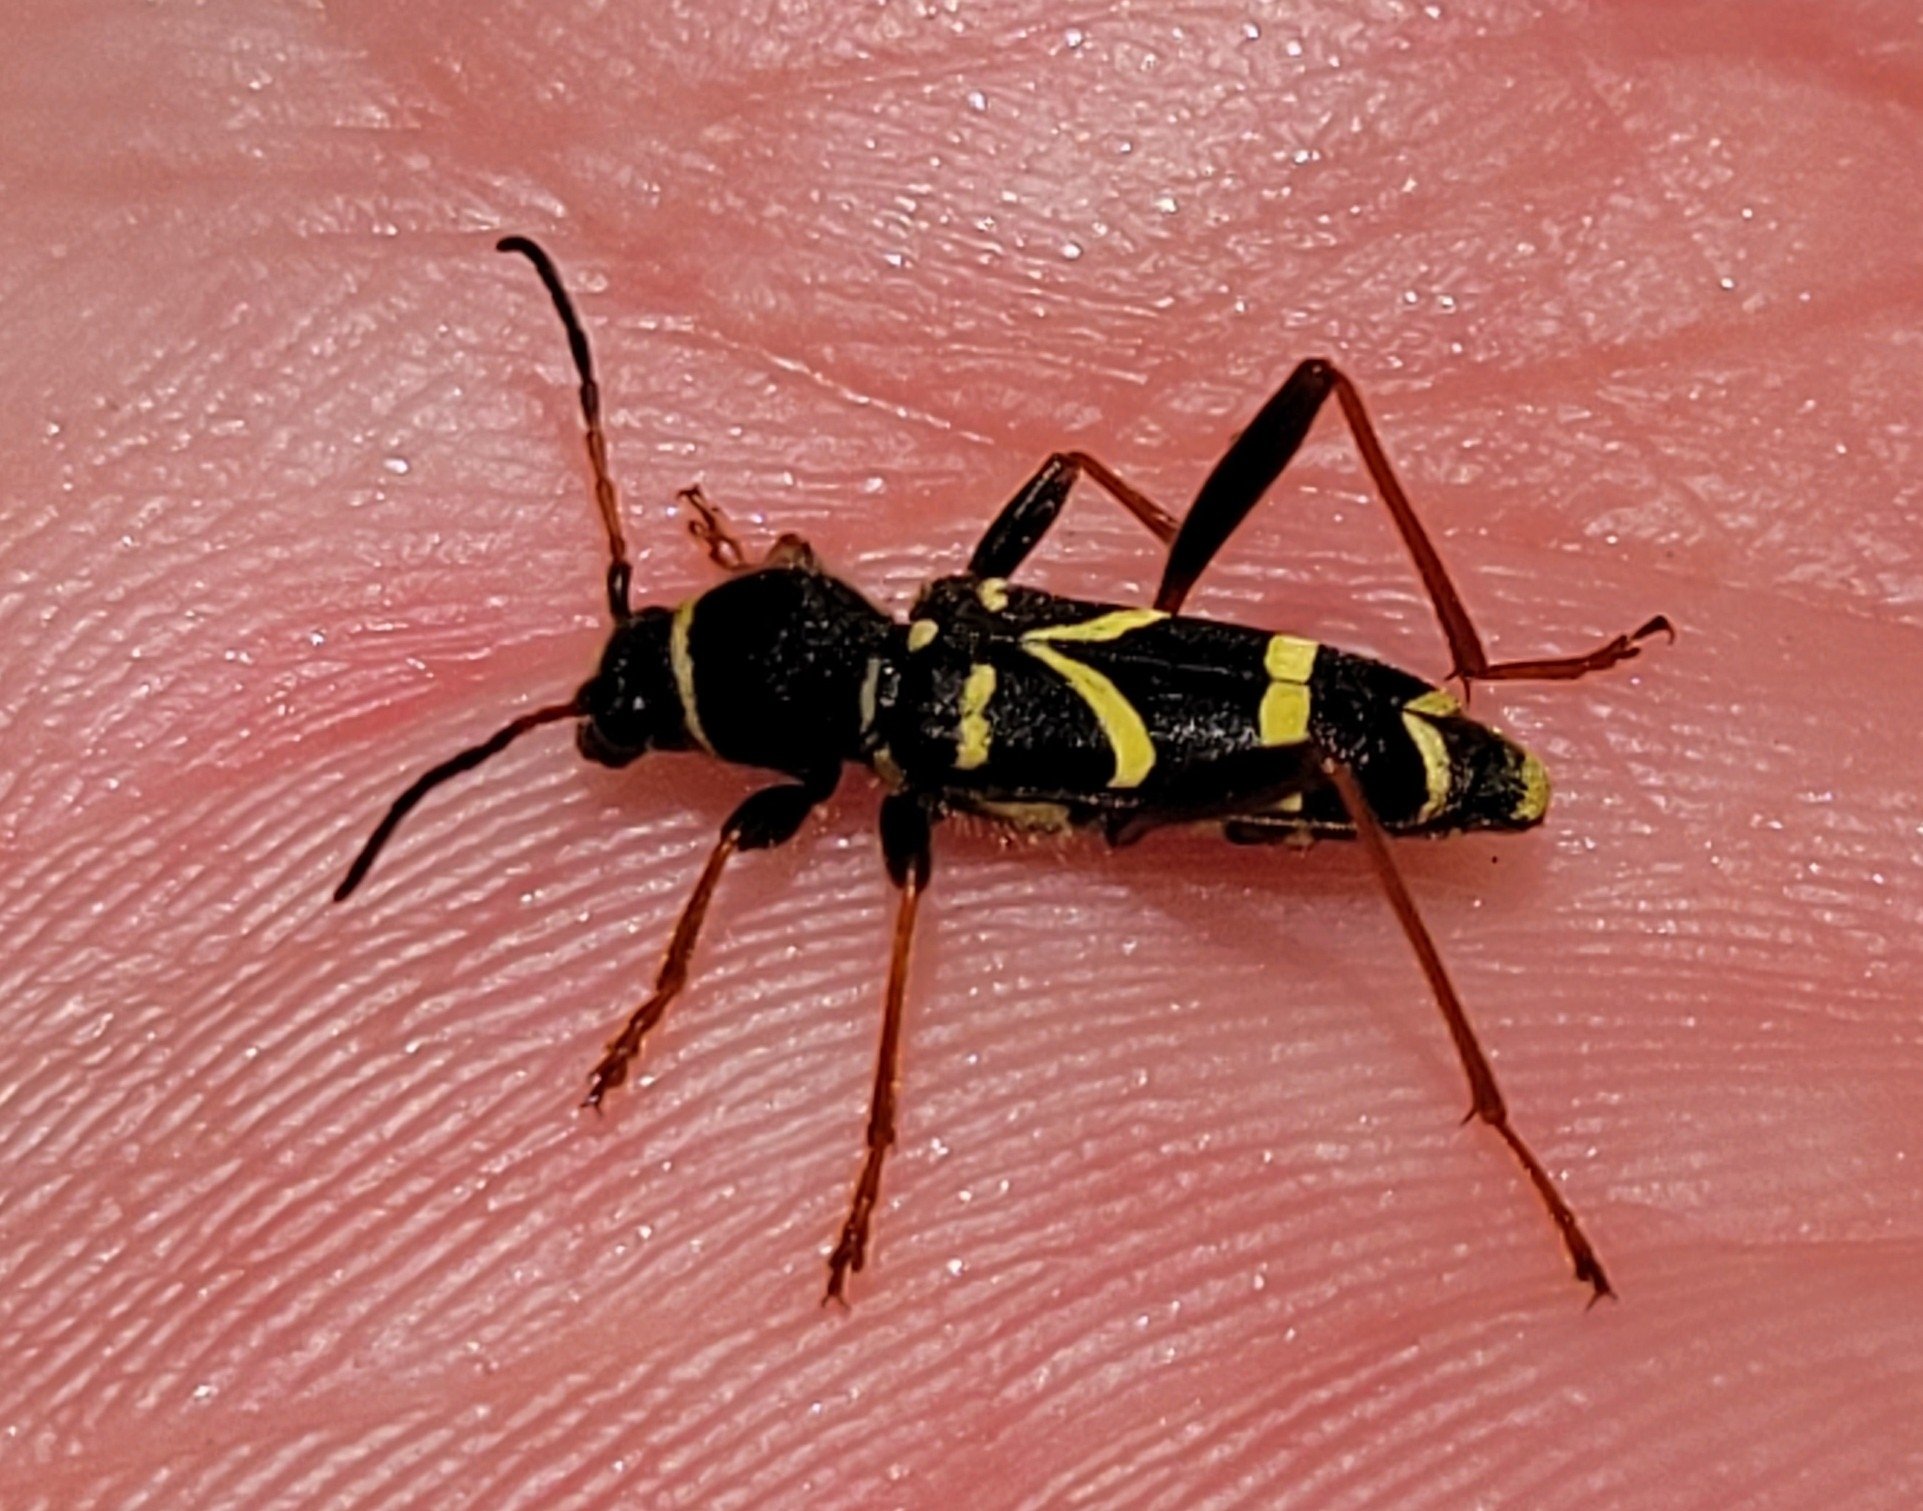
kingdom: Animalia
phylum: Arthropoda
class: Insecta
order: Coleoptera
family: Cerambycidae
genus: Clytus
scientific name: Clytus arietis
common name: Wasp beetle
